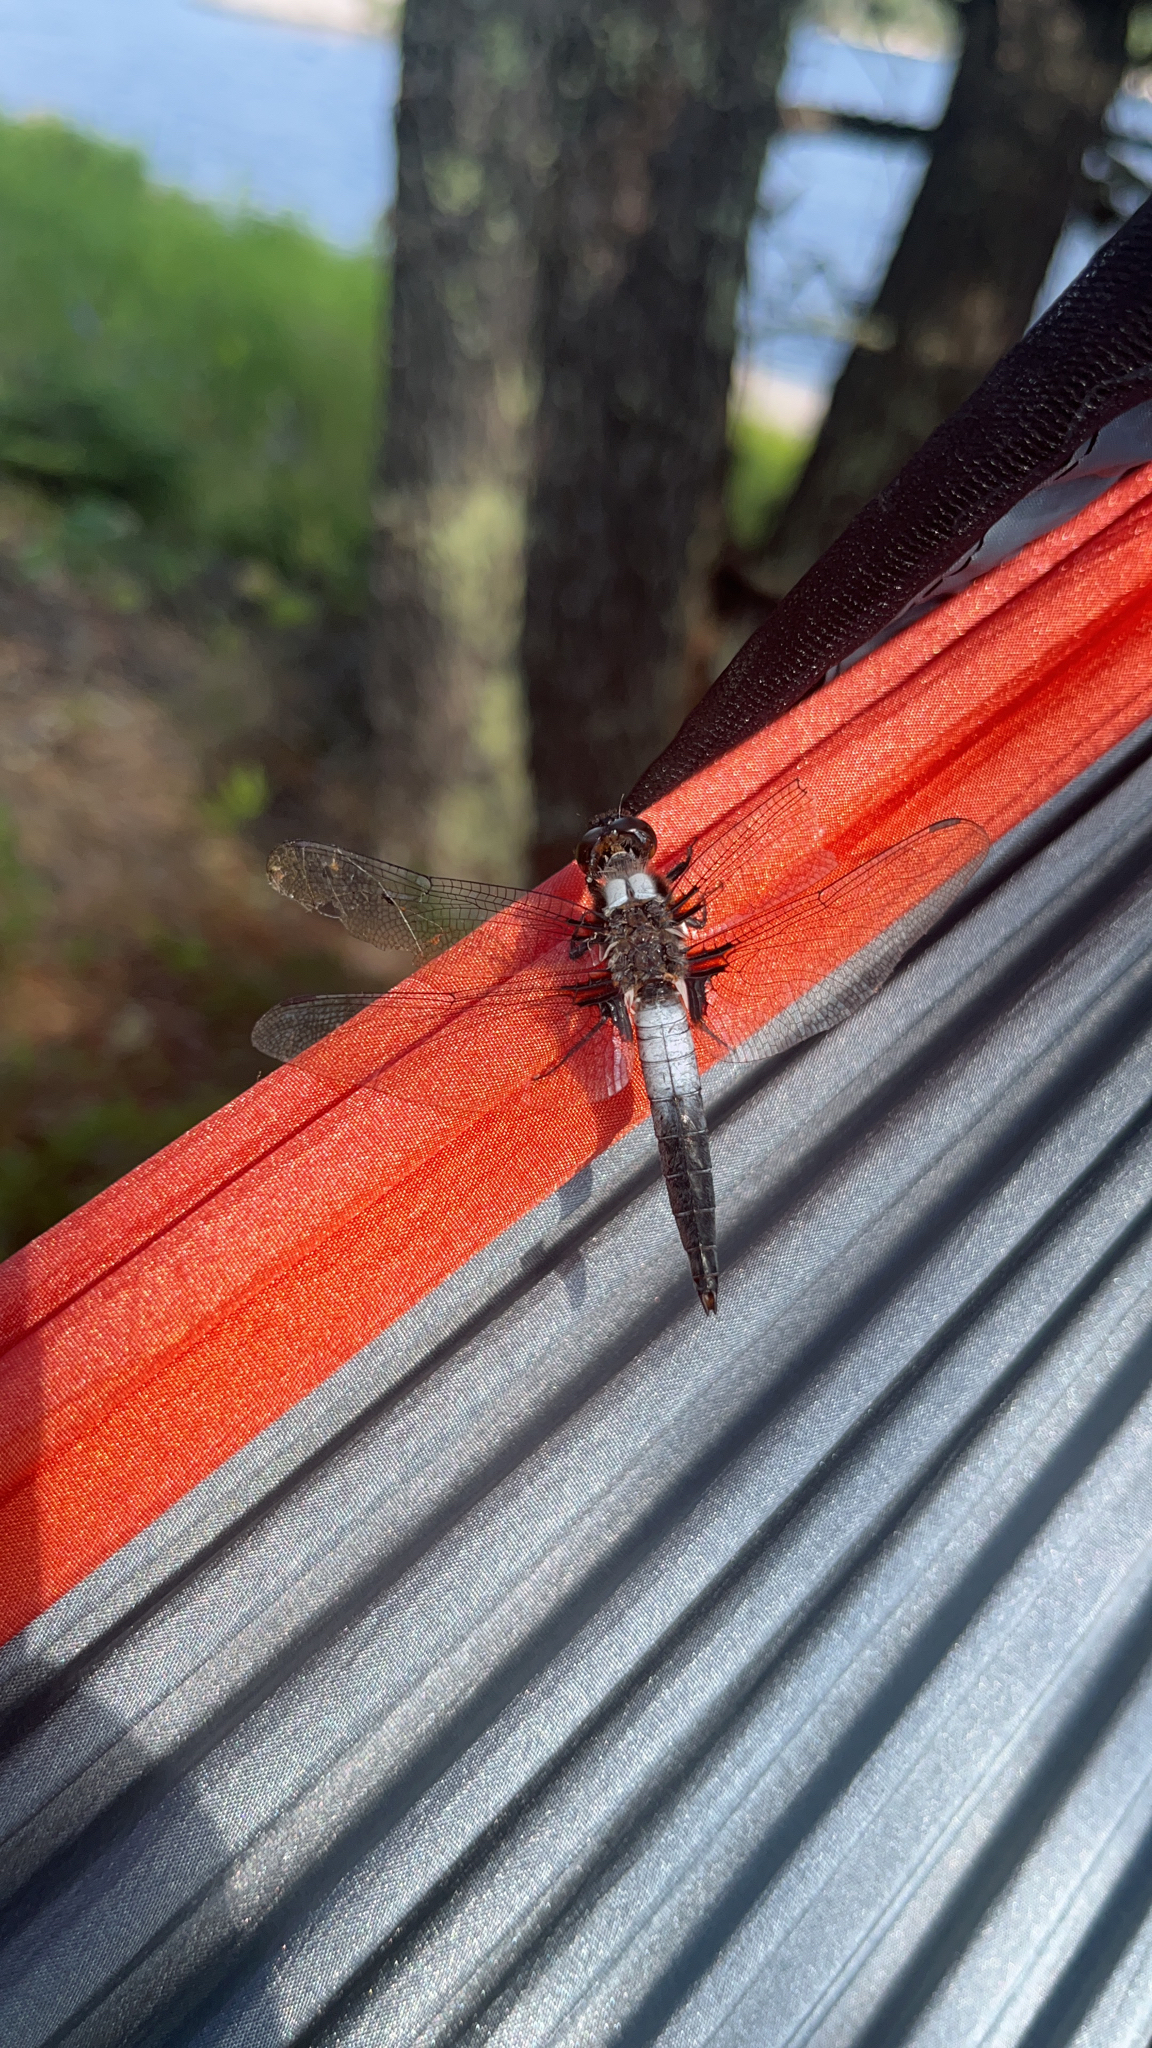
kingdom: Animalia
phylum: Arthropoda
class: Insecta
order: Odonata
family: Libellulidae
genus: Ladona
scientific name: Ladona julia
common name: Chalk-fronted corporal
